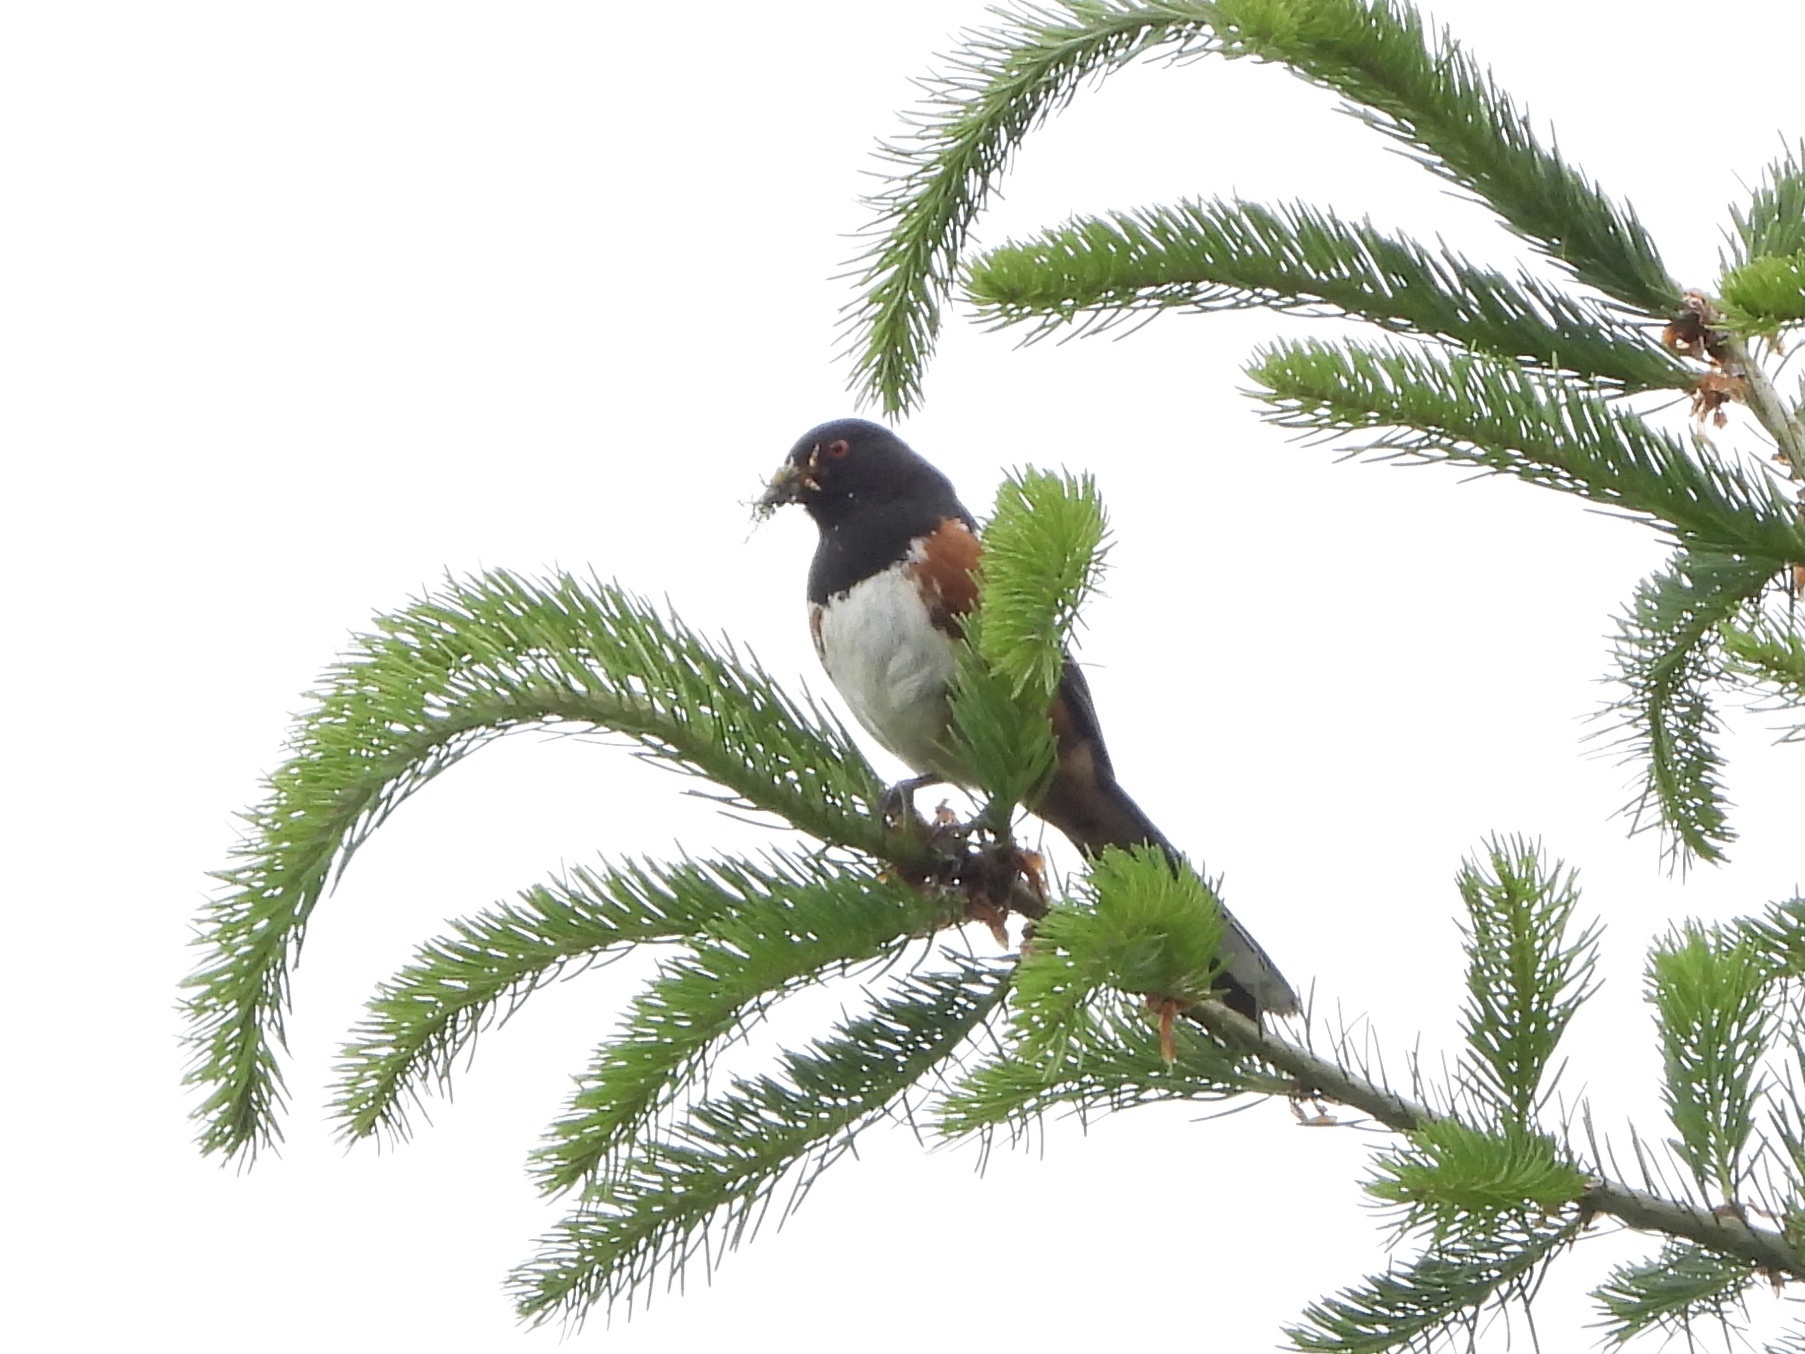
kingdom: Animalia
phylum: Chordata
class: Aves
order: Passeriformes
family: Passerellidae
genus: Pipilo
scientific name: Pipilo maculatus
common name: Spotted towhee
